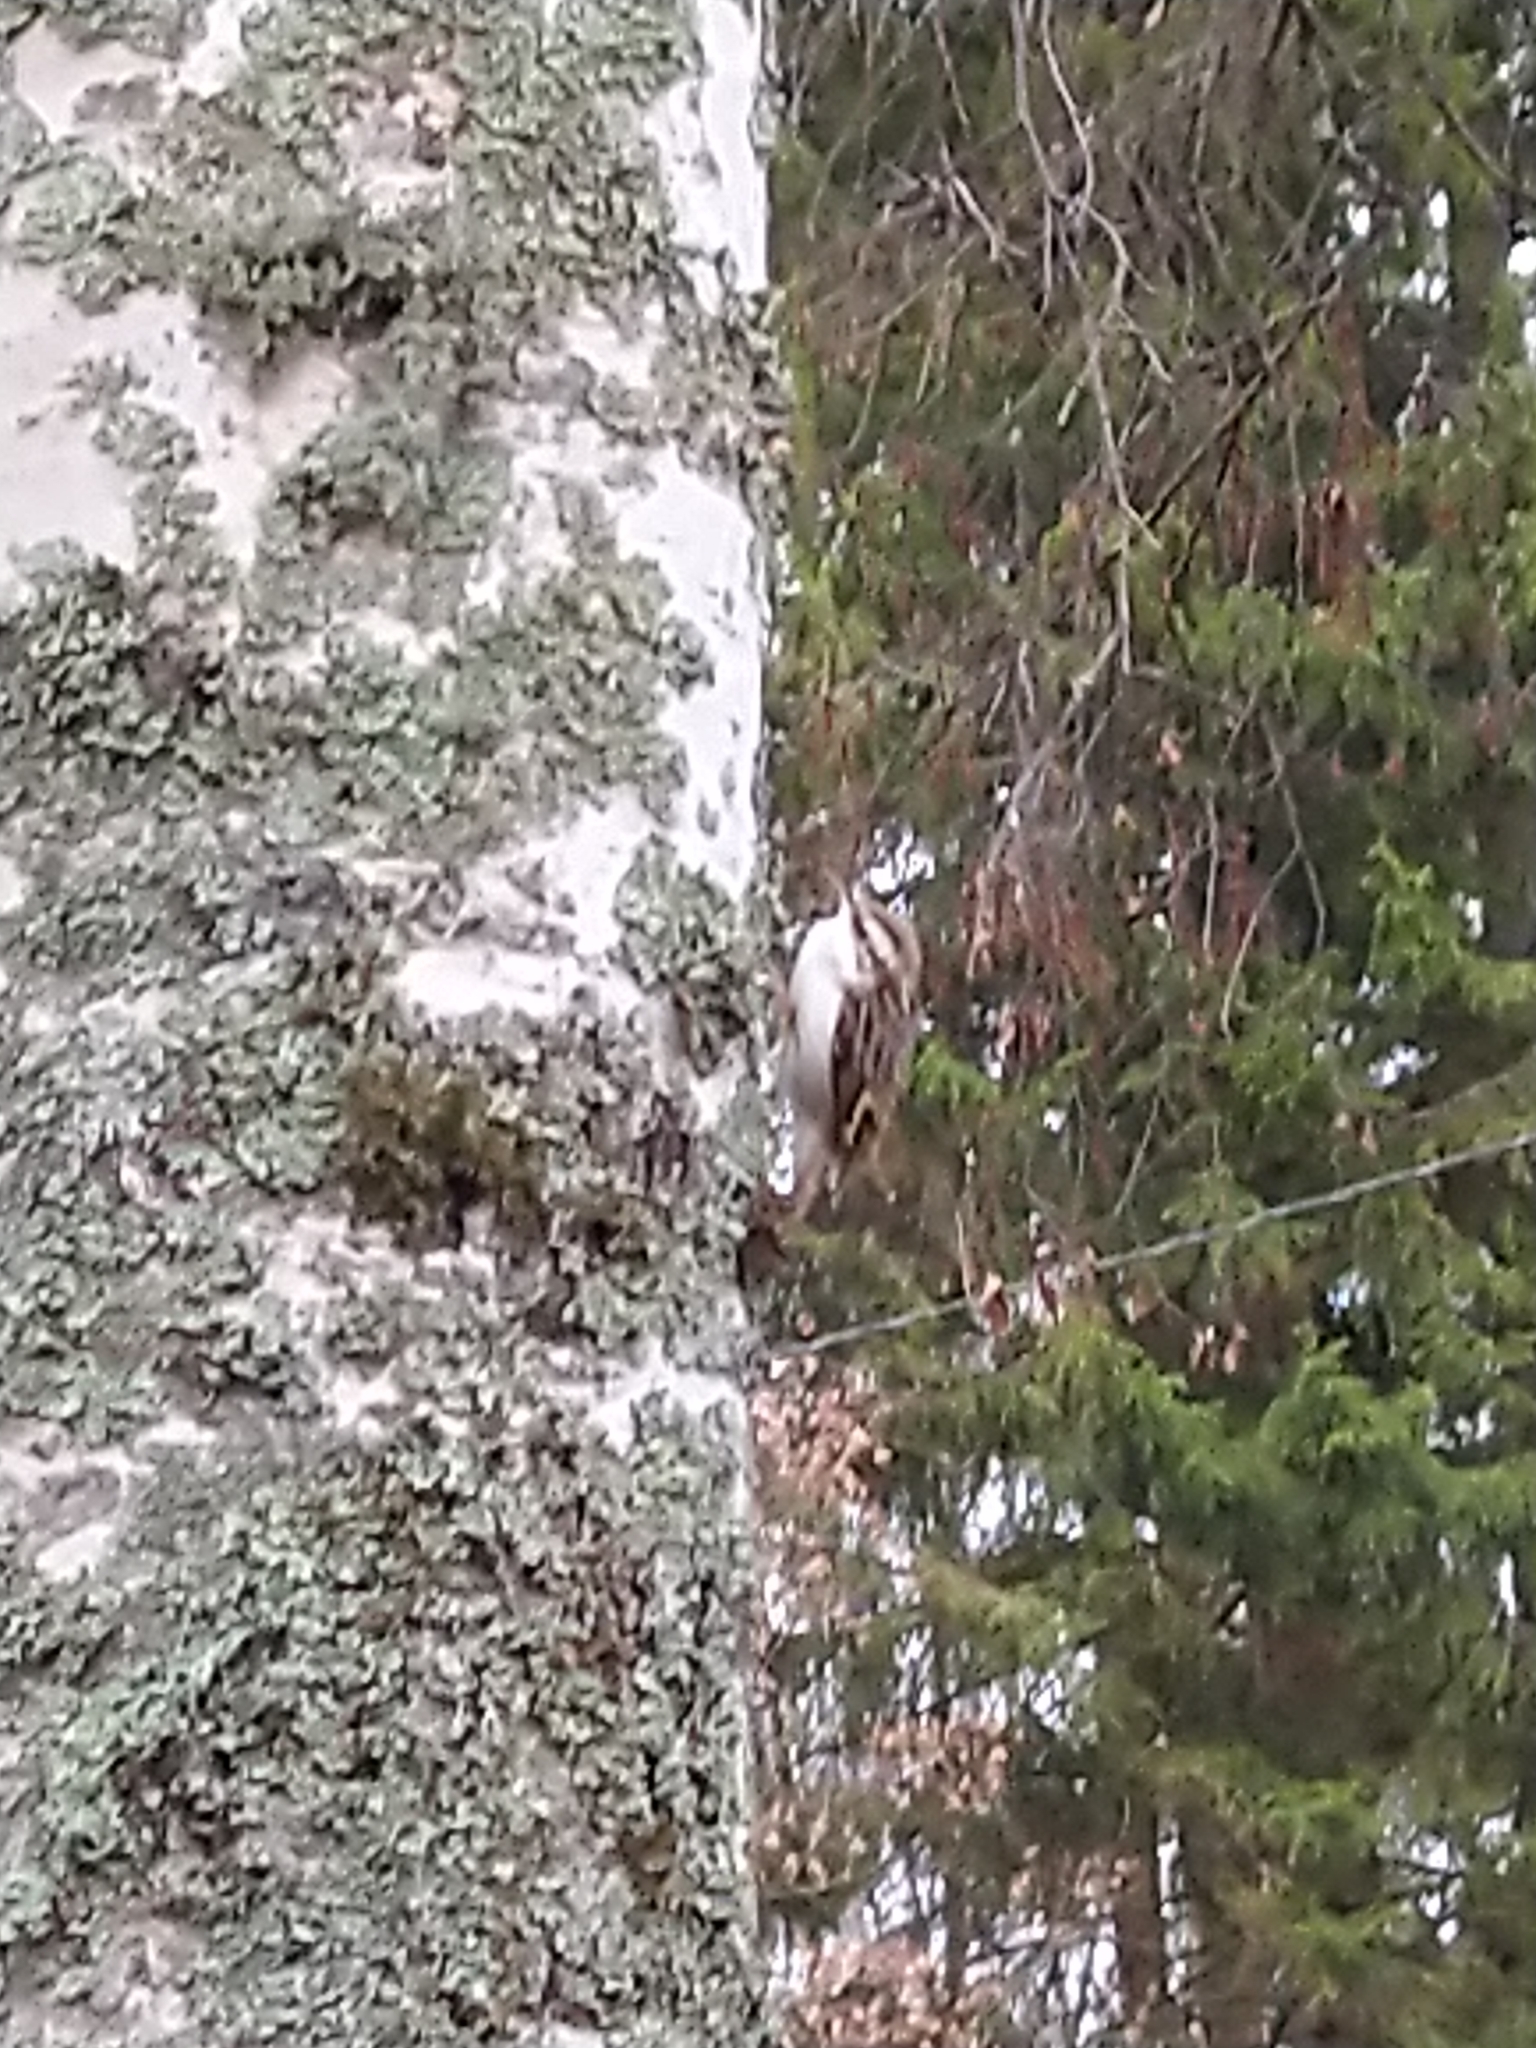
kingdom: Animalia
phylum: Chordata
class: Aves
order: Passeriformes
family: Certhiidae
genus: Certhia
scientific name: Certhia familiaris
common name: Eurasian treecreeper
